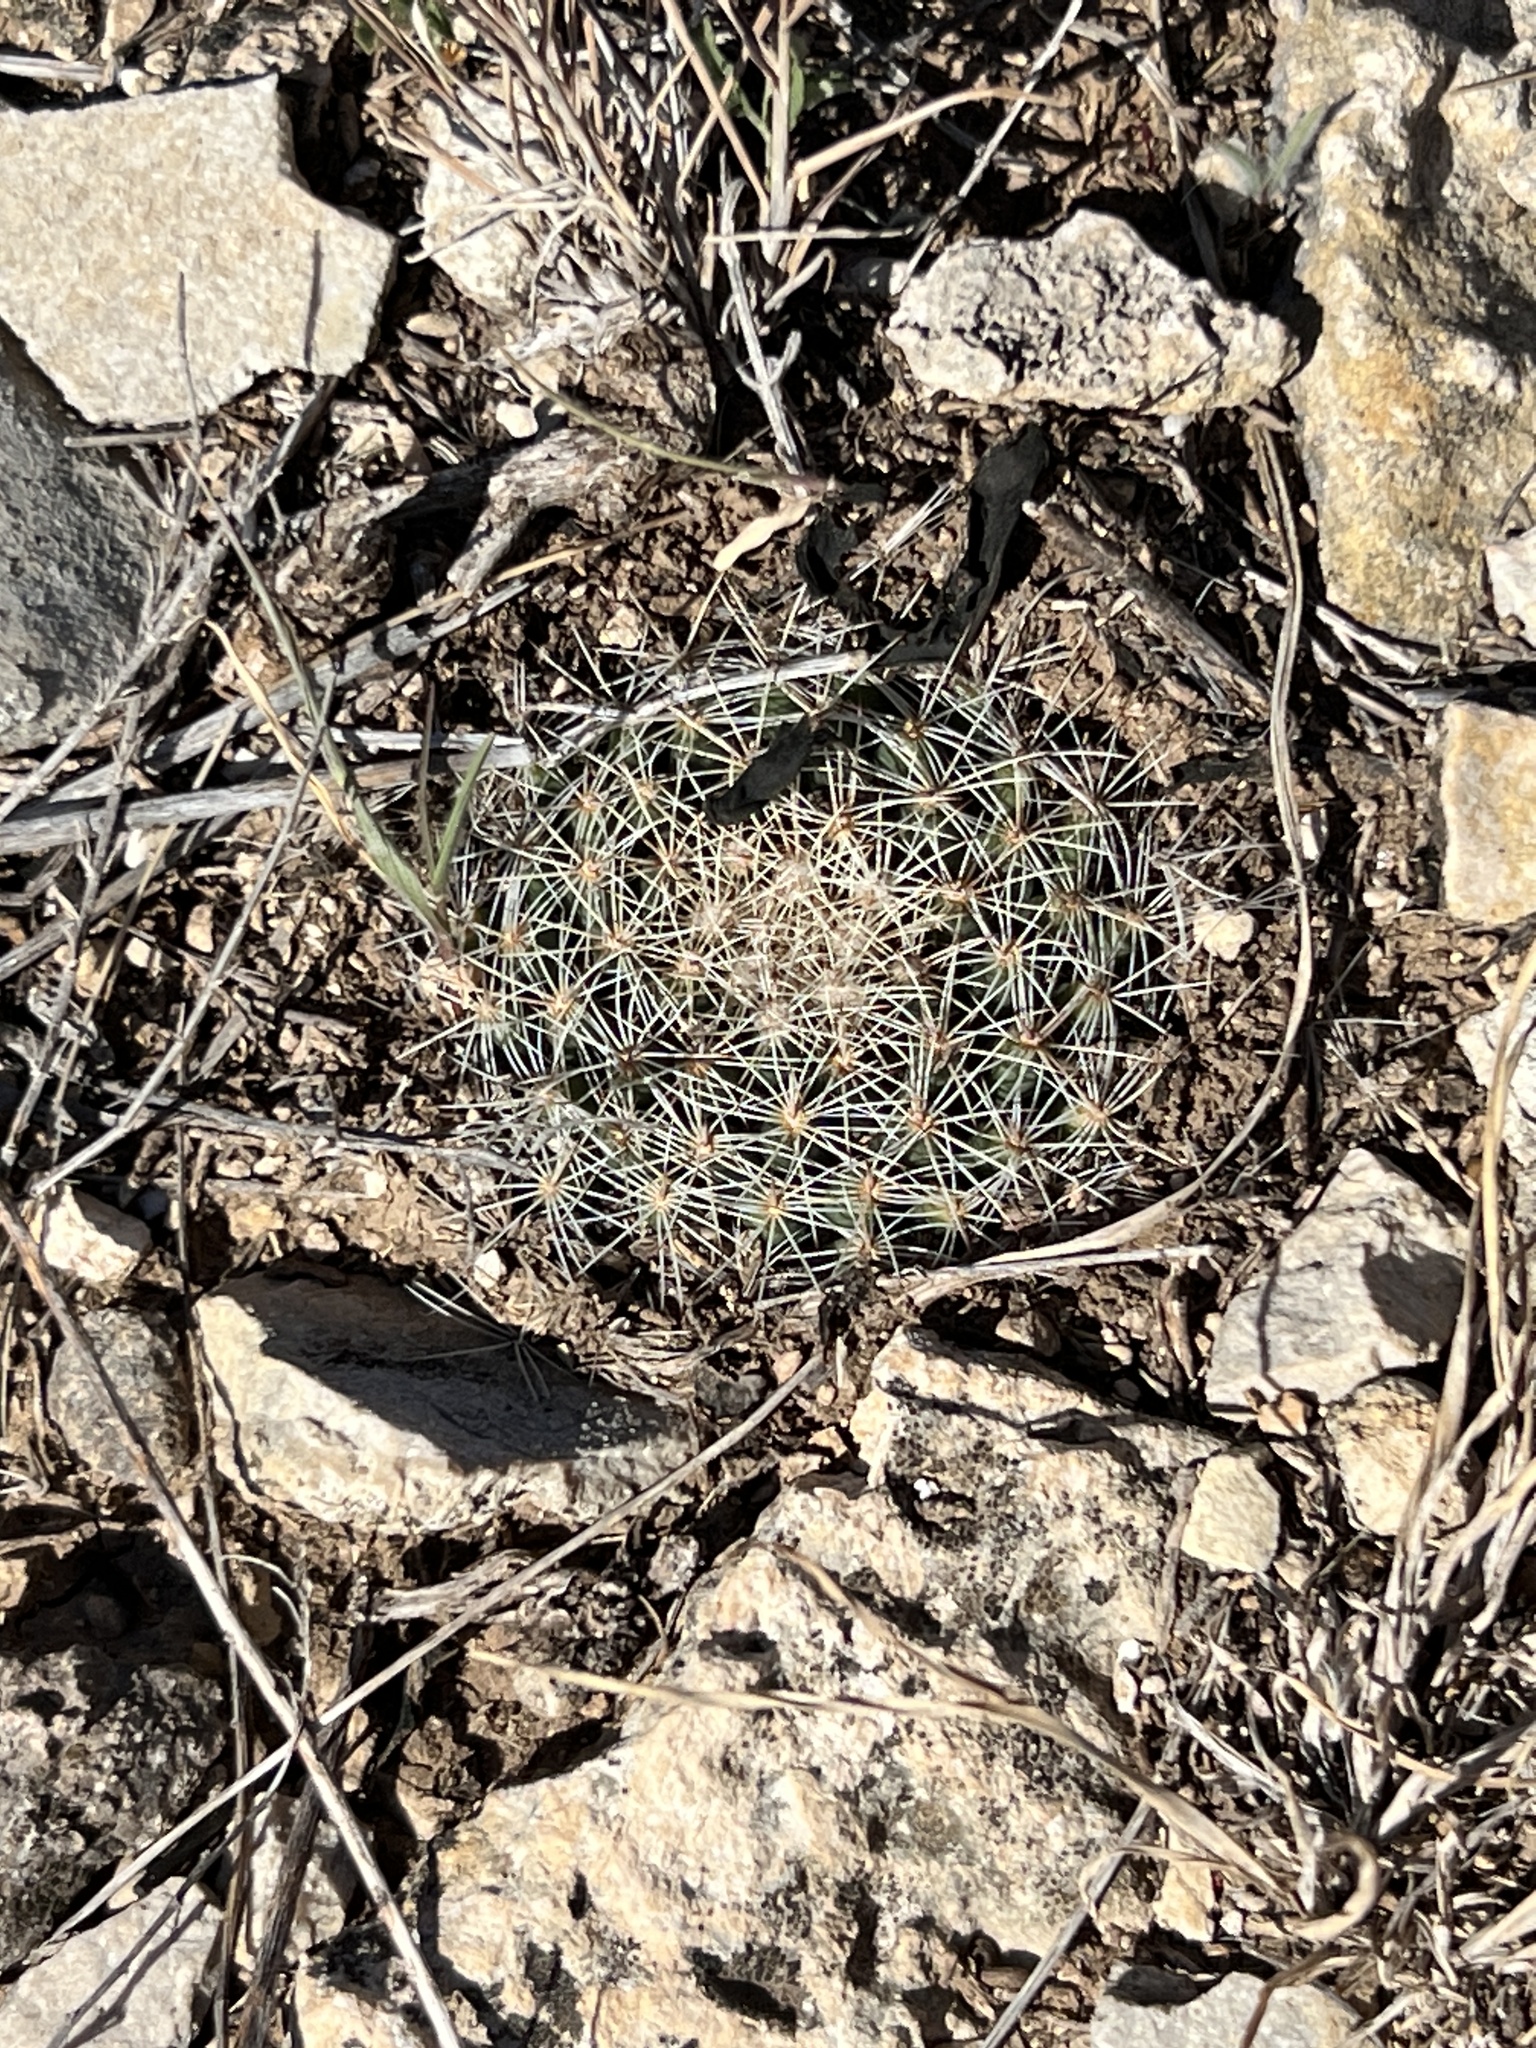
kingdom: Plantae
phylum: Tracheophyta
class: Magnoliopsida
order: Caryophyllales
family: Cactaceae
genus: Mammillaria
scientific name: Mammillaria heyderi
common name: Little nipple cactus
